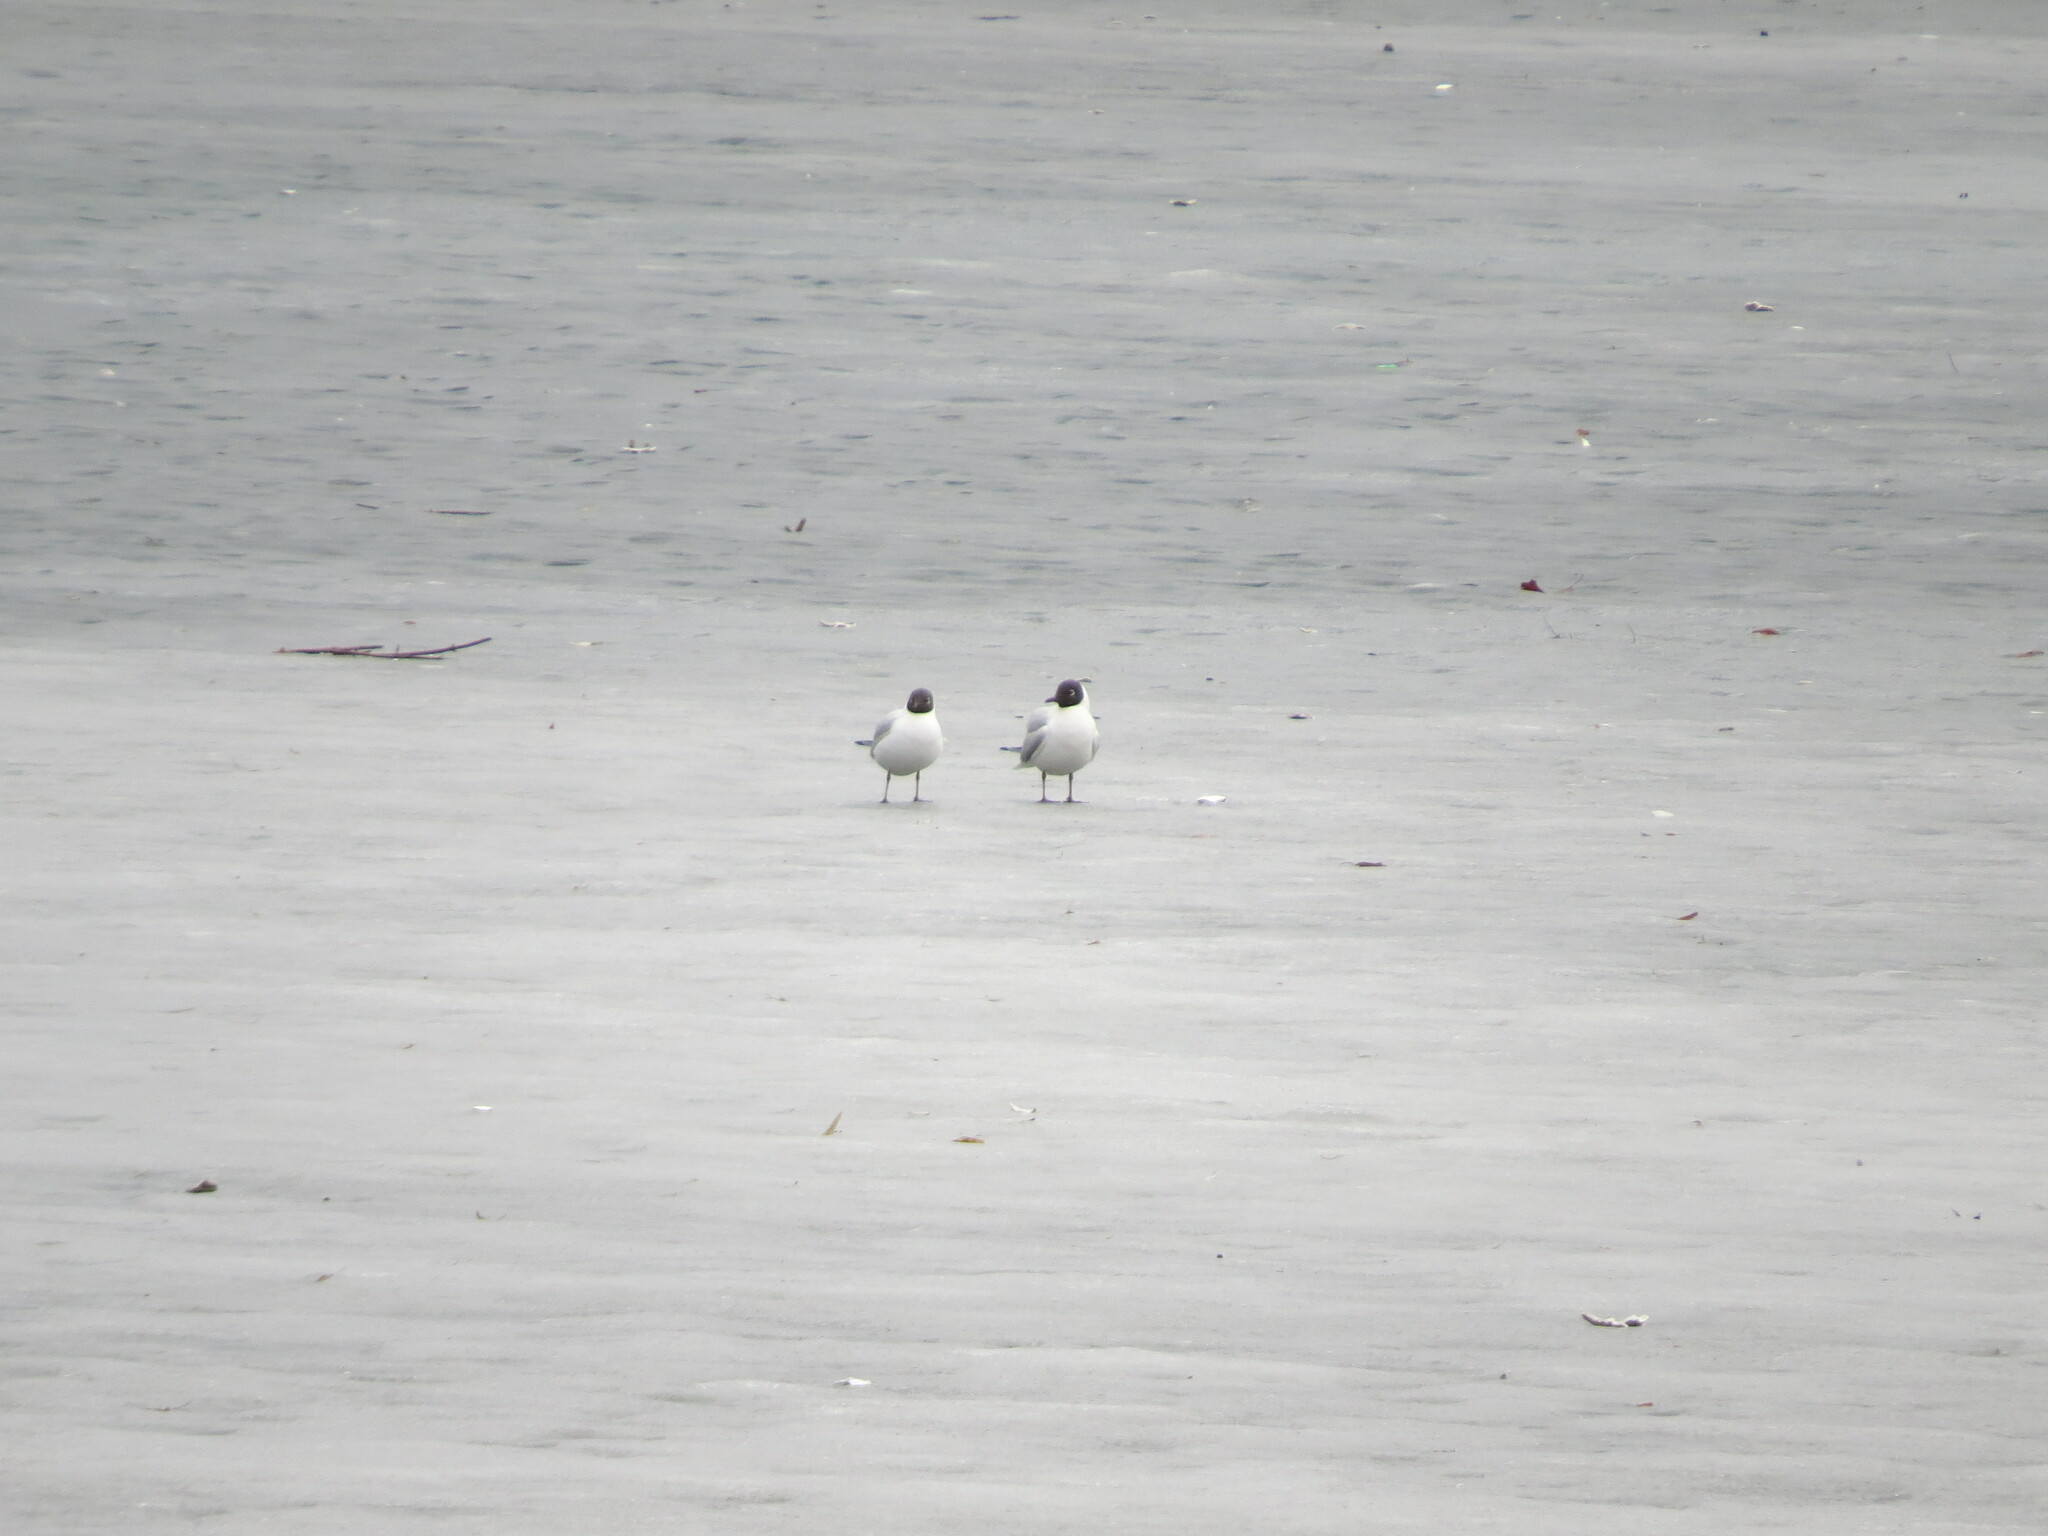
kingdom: Animalia
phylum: Chordata
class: Aves
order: Charadriiformes
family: Laridae
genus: Chroicocephalus
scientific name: Chroicocephalus ridibundus
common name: Black-headed gull
